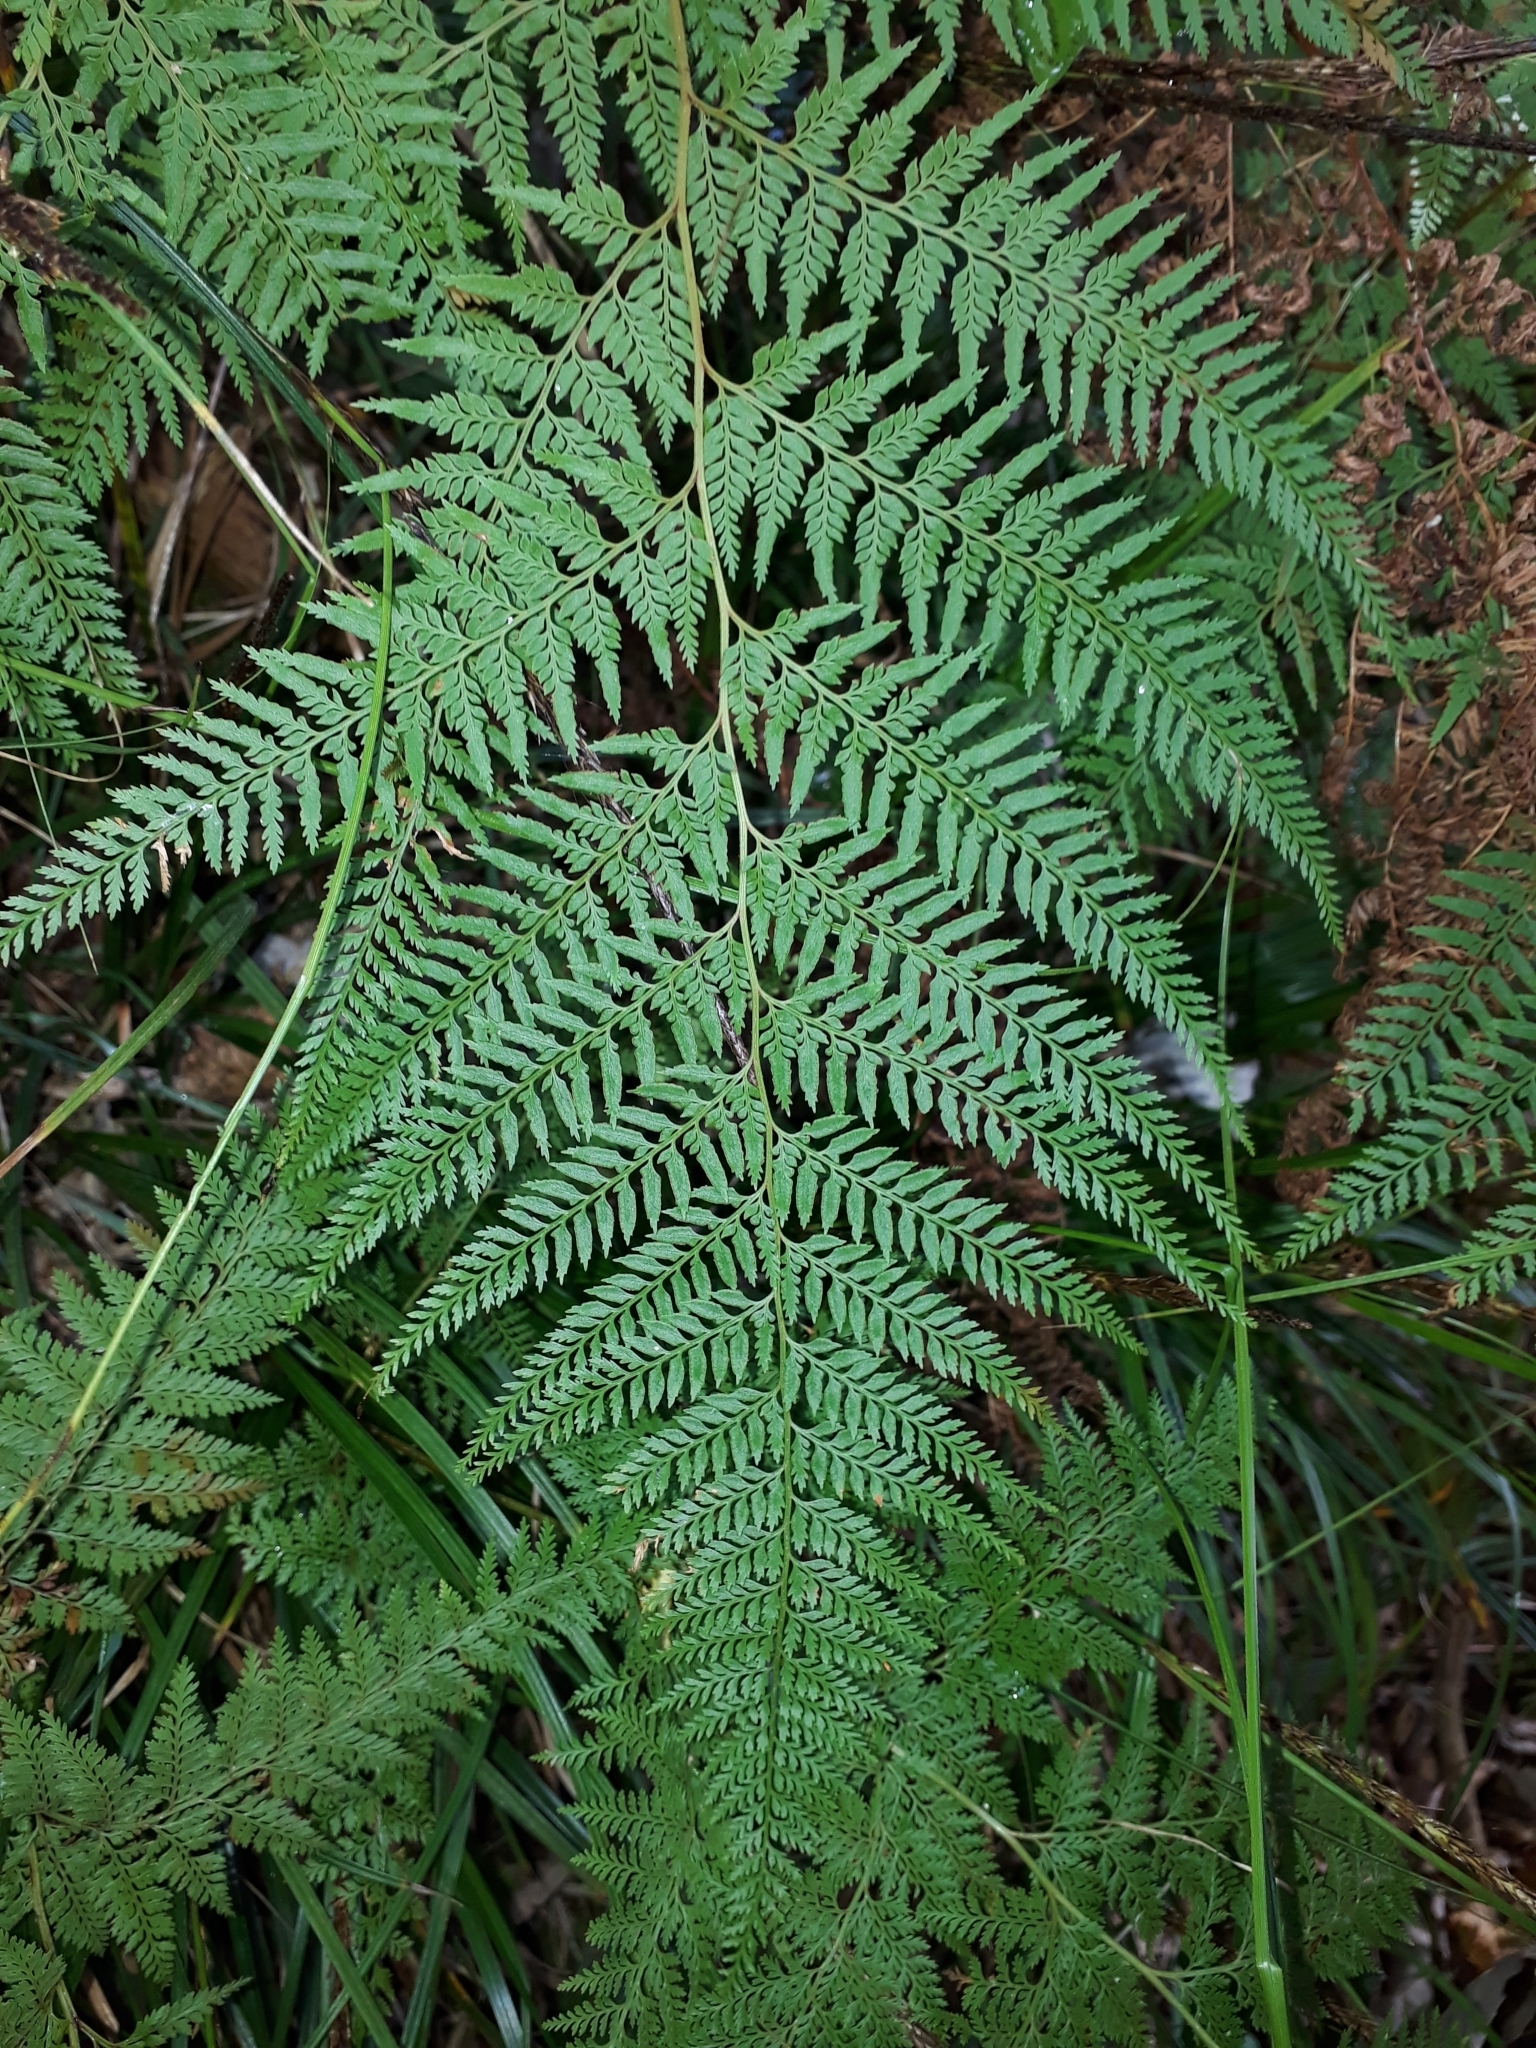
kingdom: Plantae
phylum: Tracheophyta
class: Polypodiopsida
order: Polypodiales
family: Dennstaedtiaceae
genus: Paesia
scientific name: Paesia scaberula
